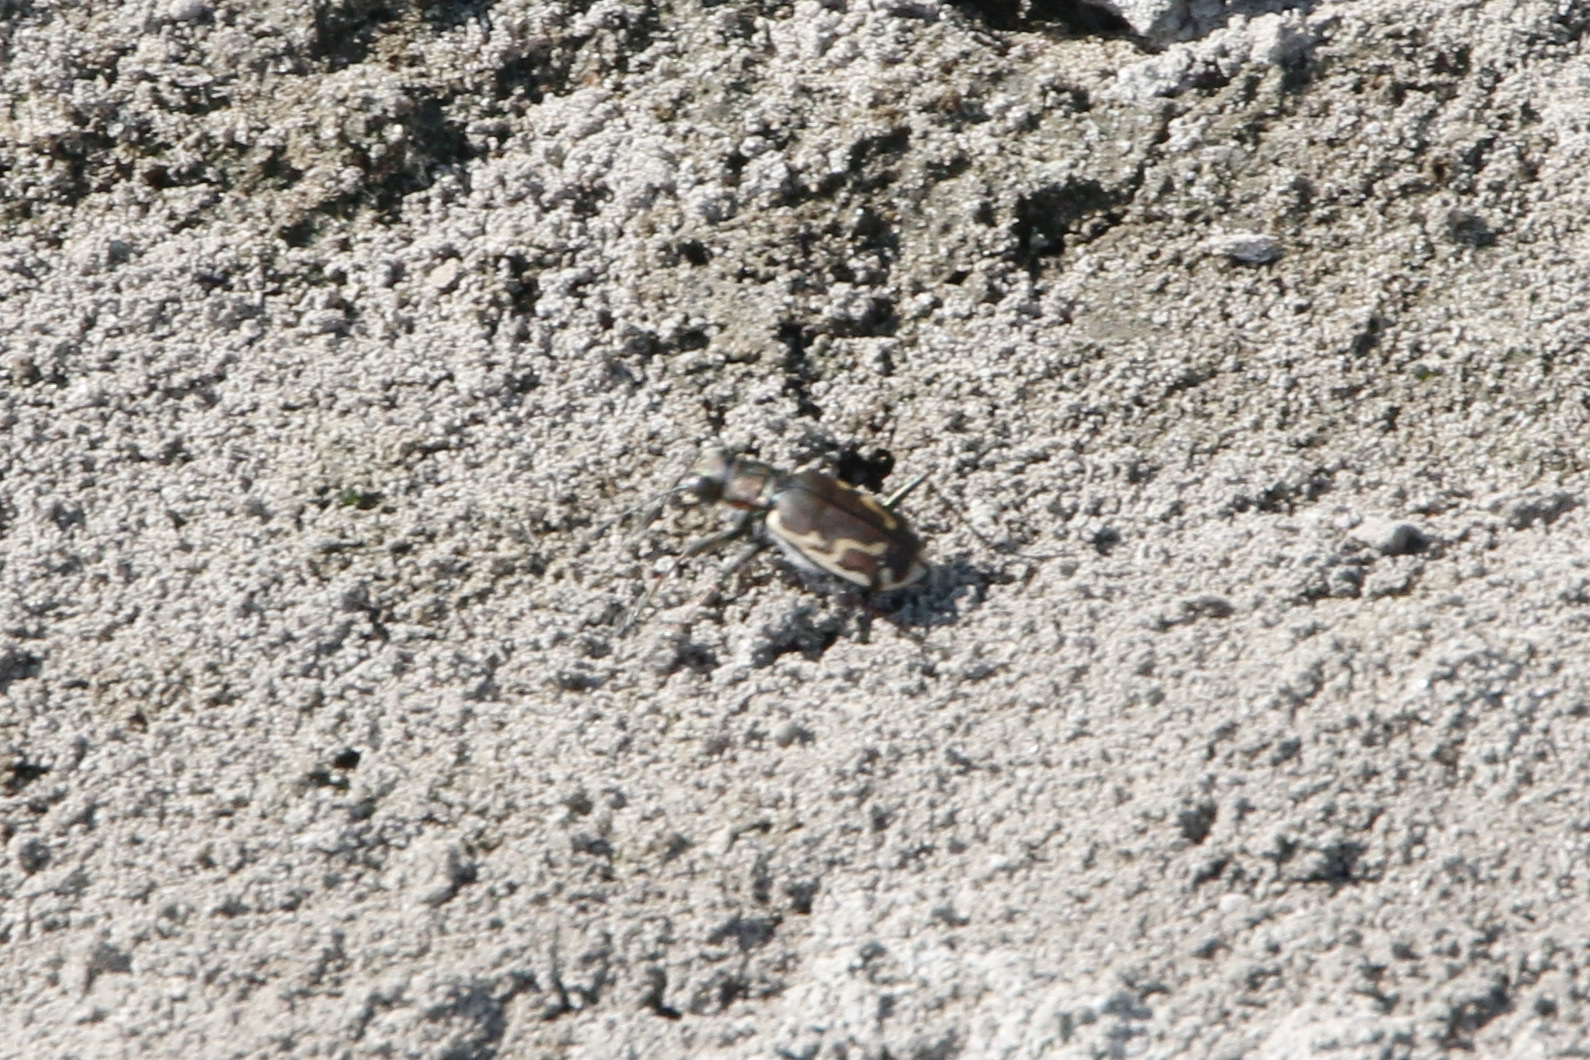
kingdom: Animalia
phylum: Arthropoda
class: Insecta
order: Coleoptera
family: Carabidae
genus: Cicindela
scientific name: Cicindela repanda
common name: Bronzed tiger beetle
